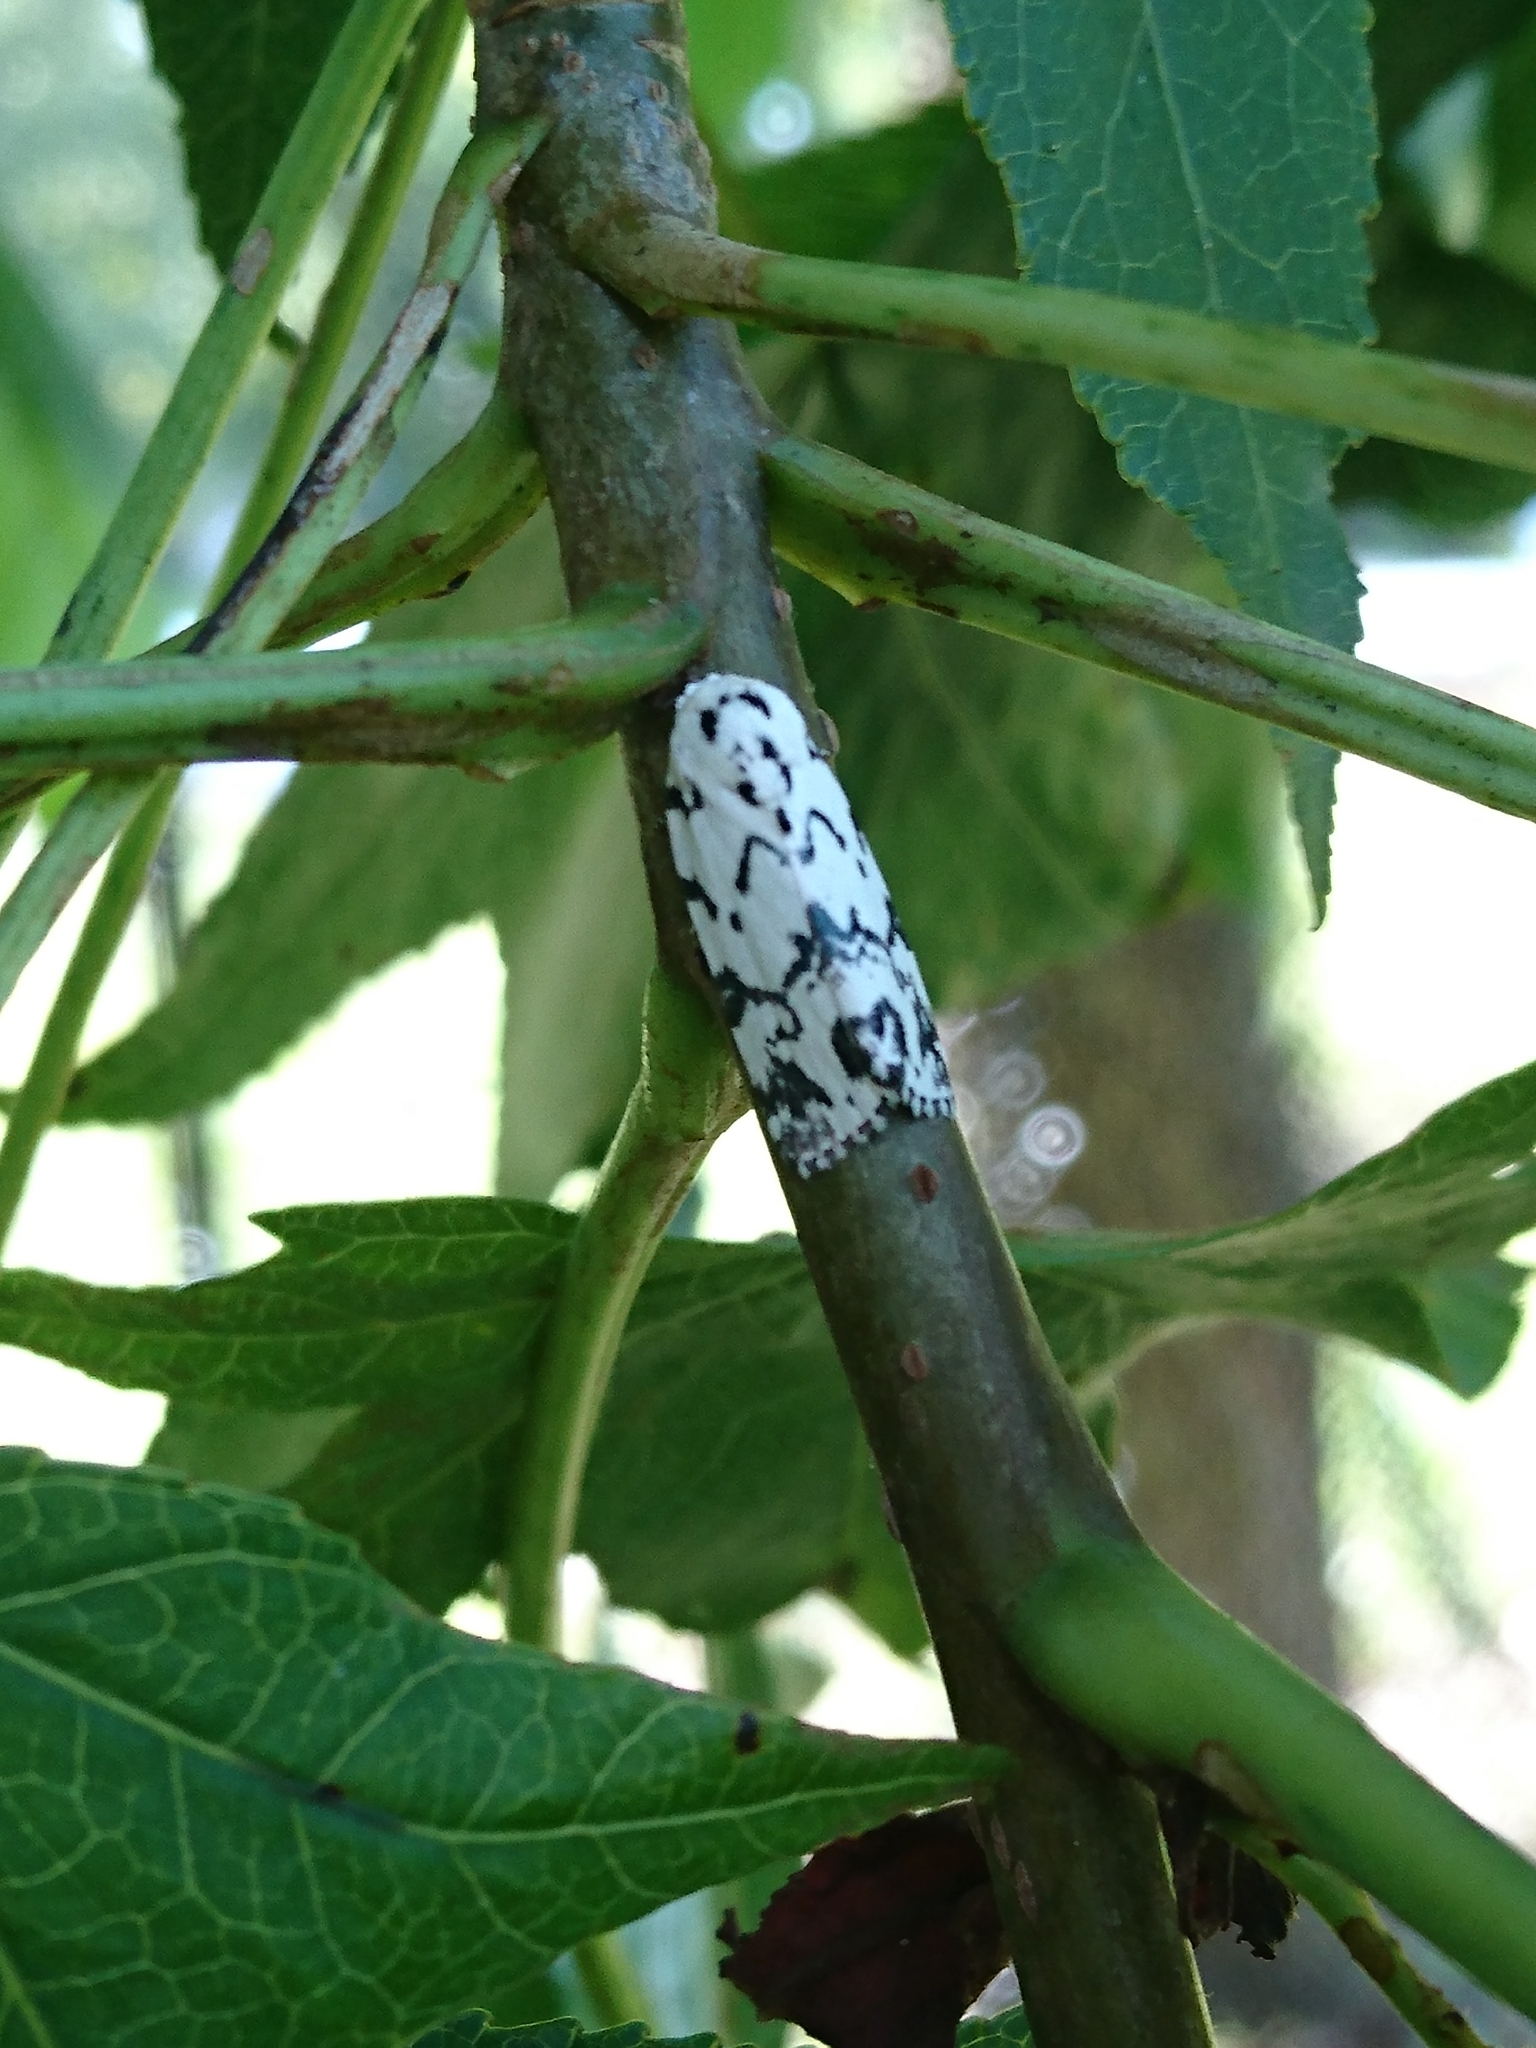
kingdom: Animalia
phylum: Arthropoda
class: Insecta
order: Lepidoptera
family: Noctuidae
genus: Polygrammate
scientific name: Polygrammate hebraeicum
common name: Hebrew moth
